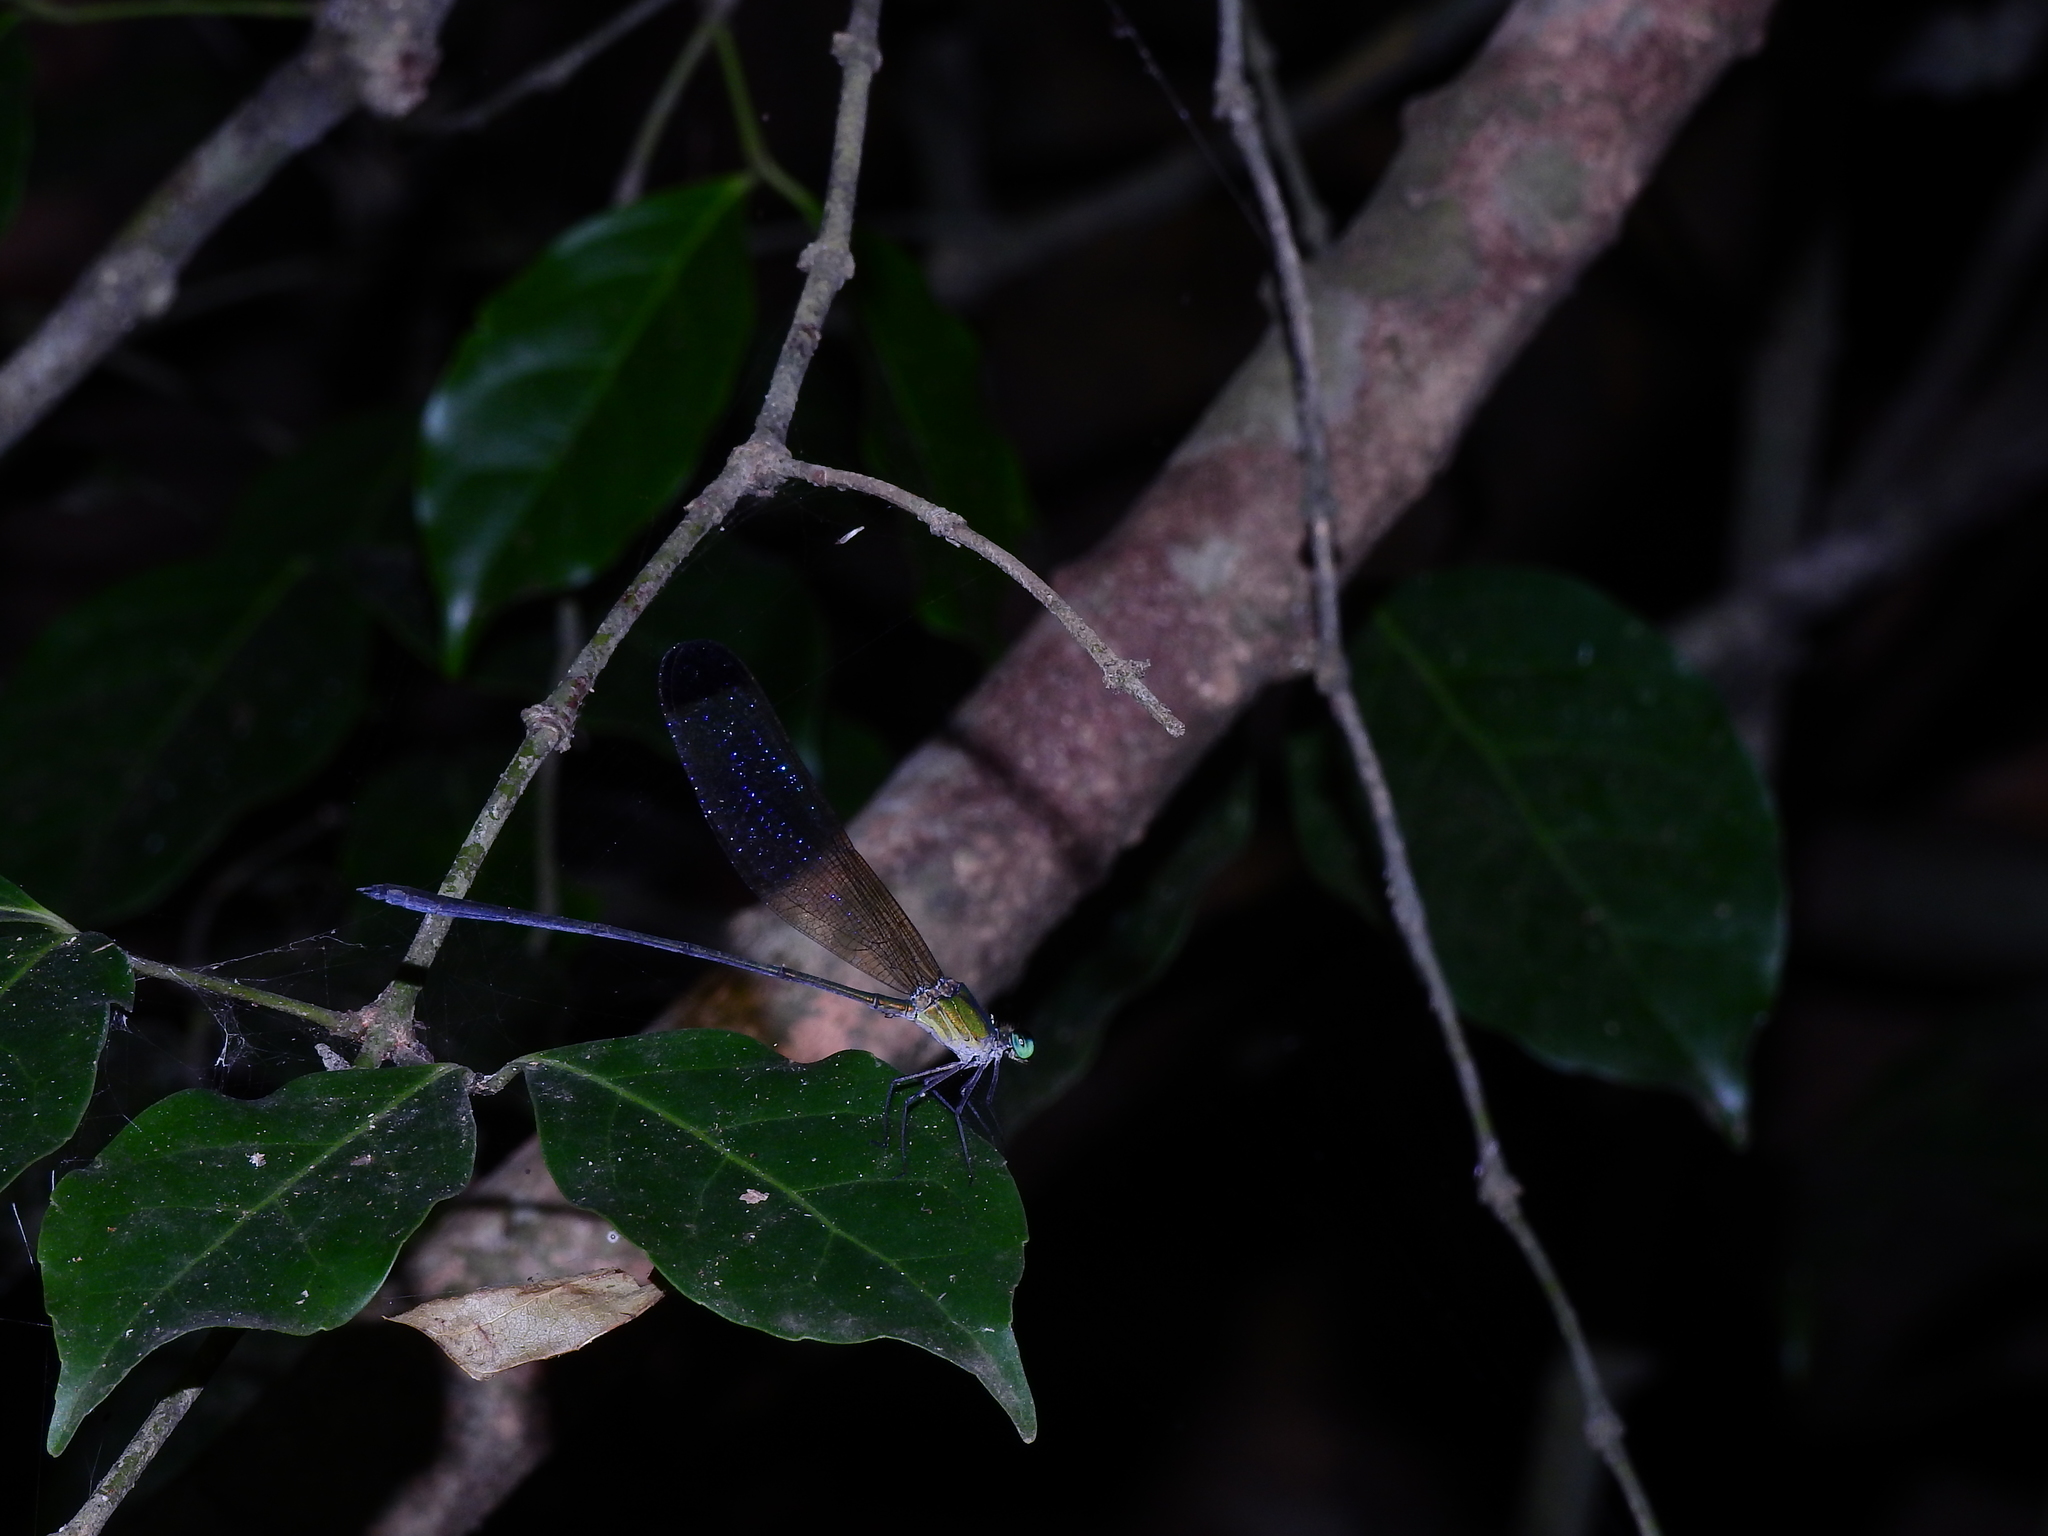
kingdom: Animalia
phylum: Arthropoda
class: Insecta
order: Odonata
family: Calopterygidae
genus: Vestalis
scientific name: Vestalis apicalis
